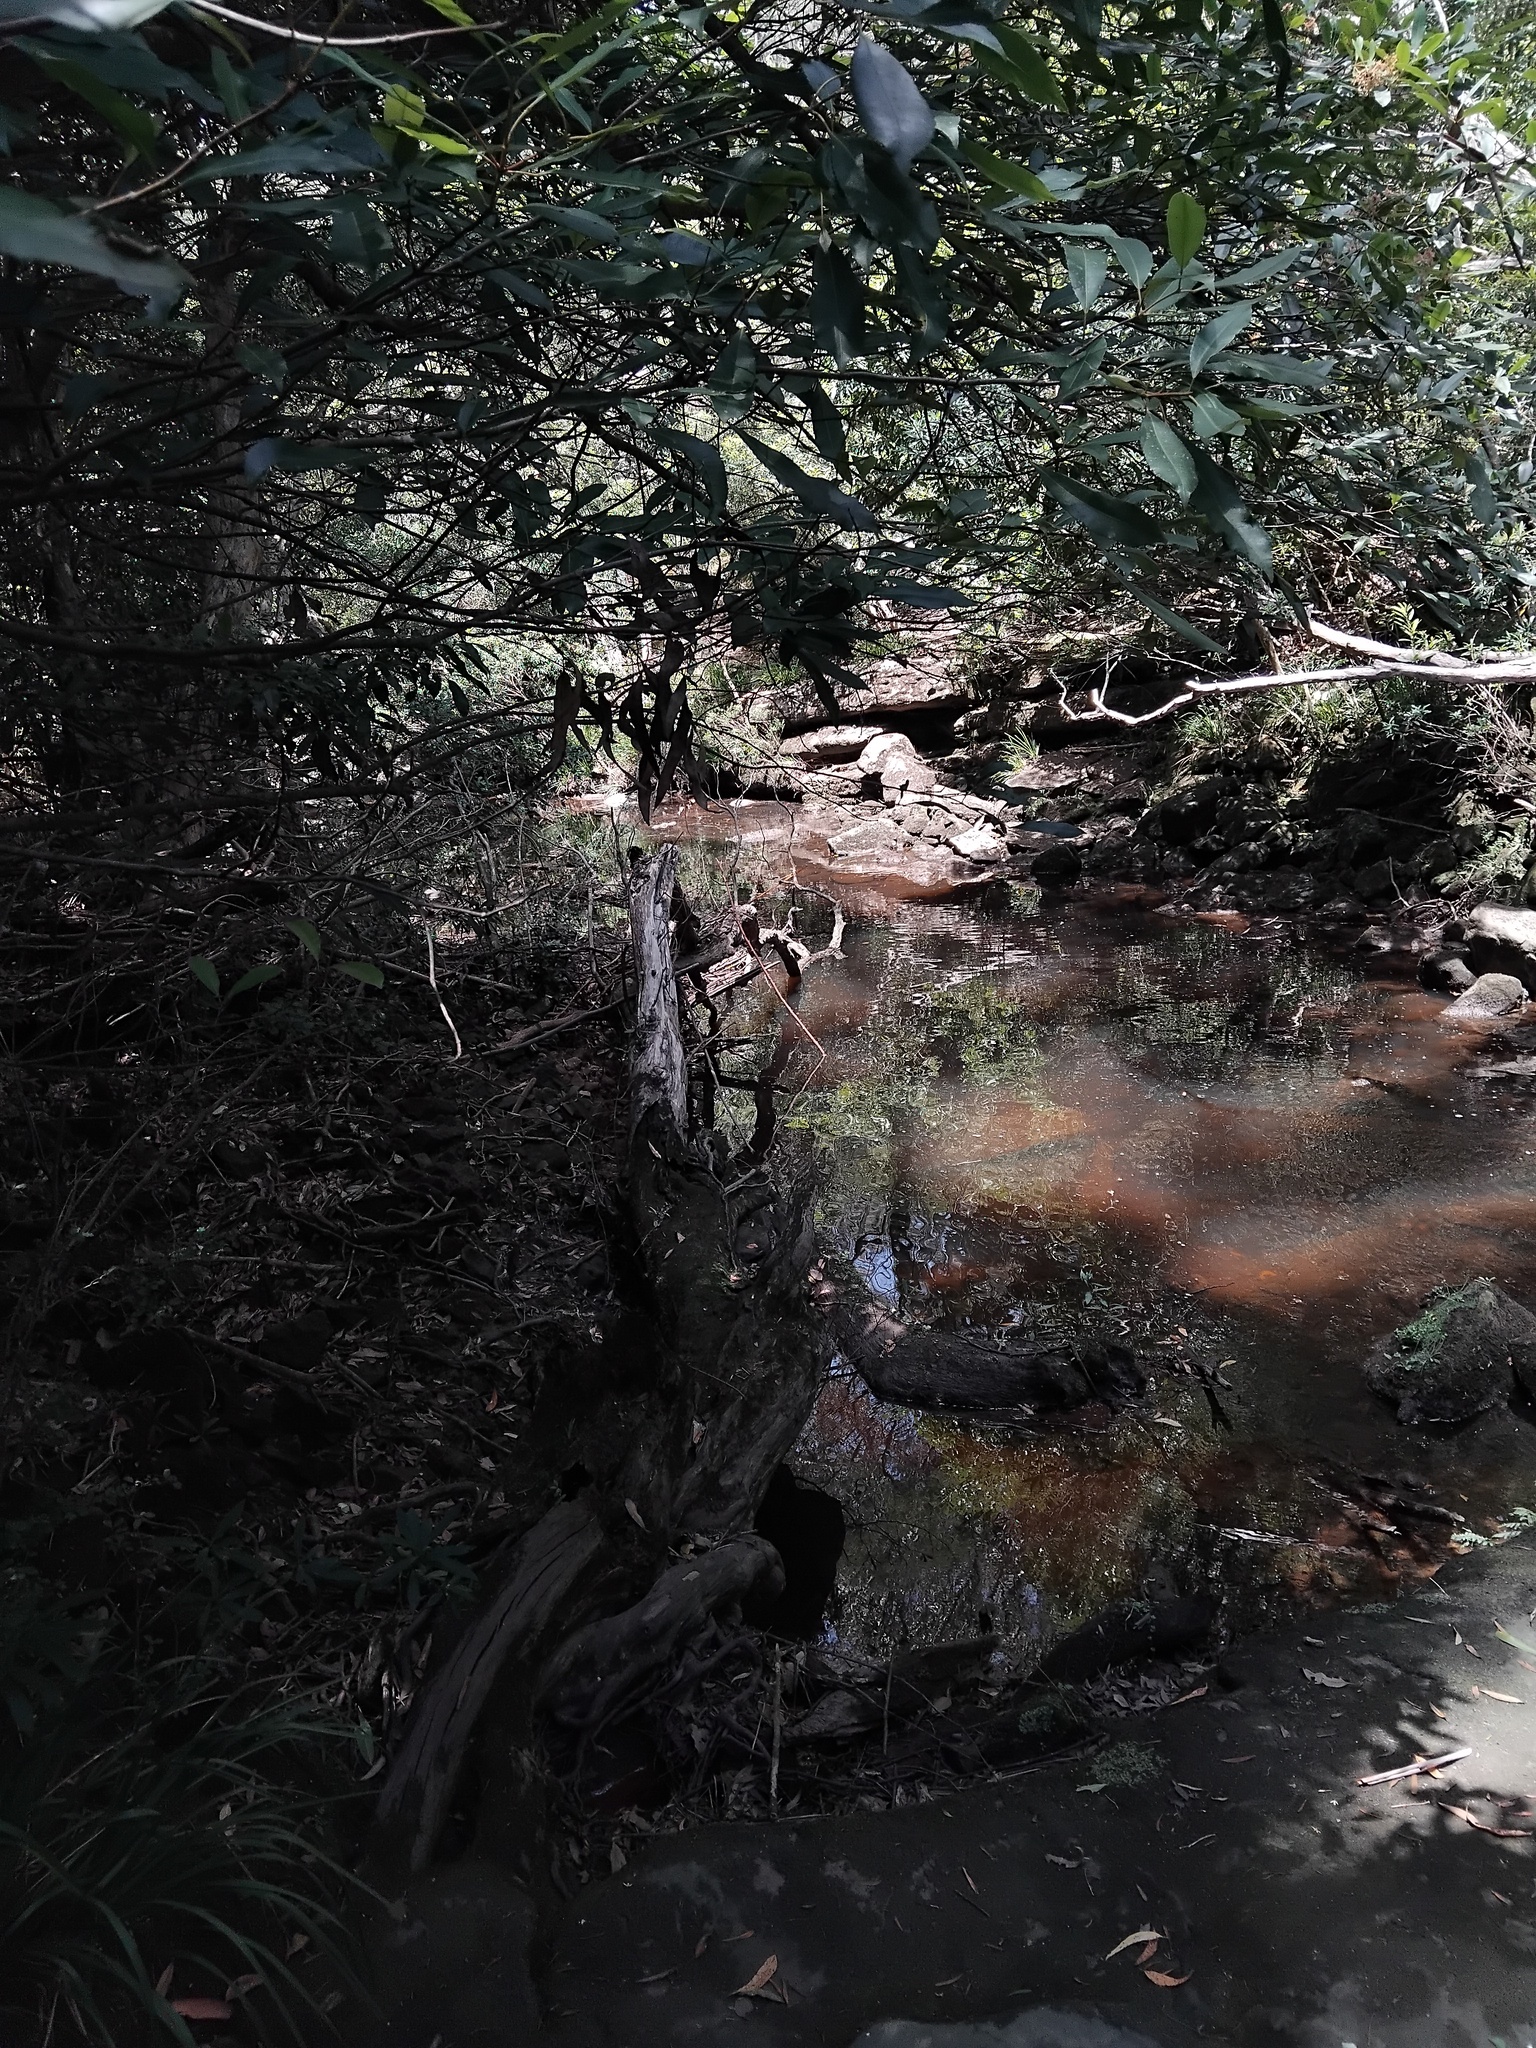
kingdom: Animalia
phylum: Chordata
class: Aves
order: Suliformes
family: Phalacrocoracidae
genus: Phalacrocorax
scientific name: Phalacrocorax sulcirostris
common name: Little black cormorant
